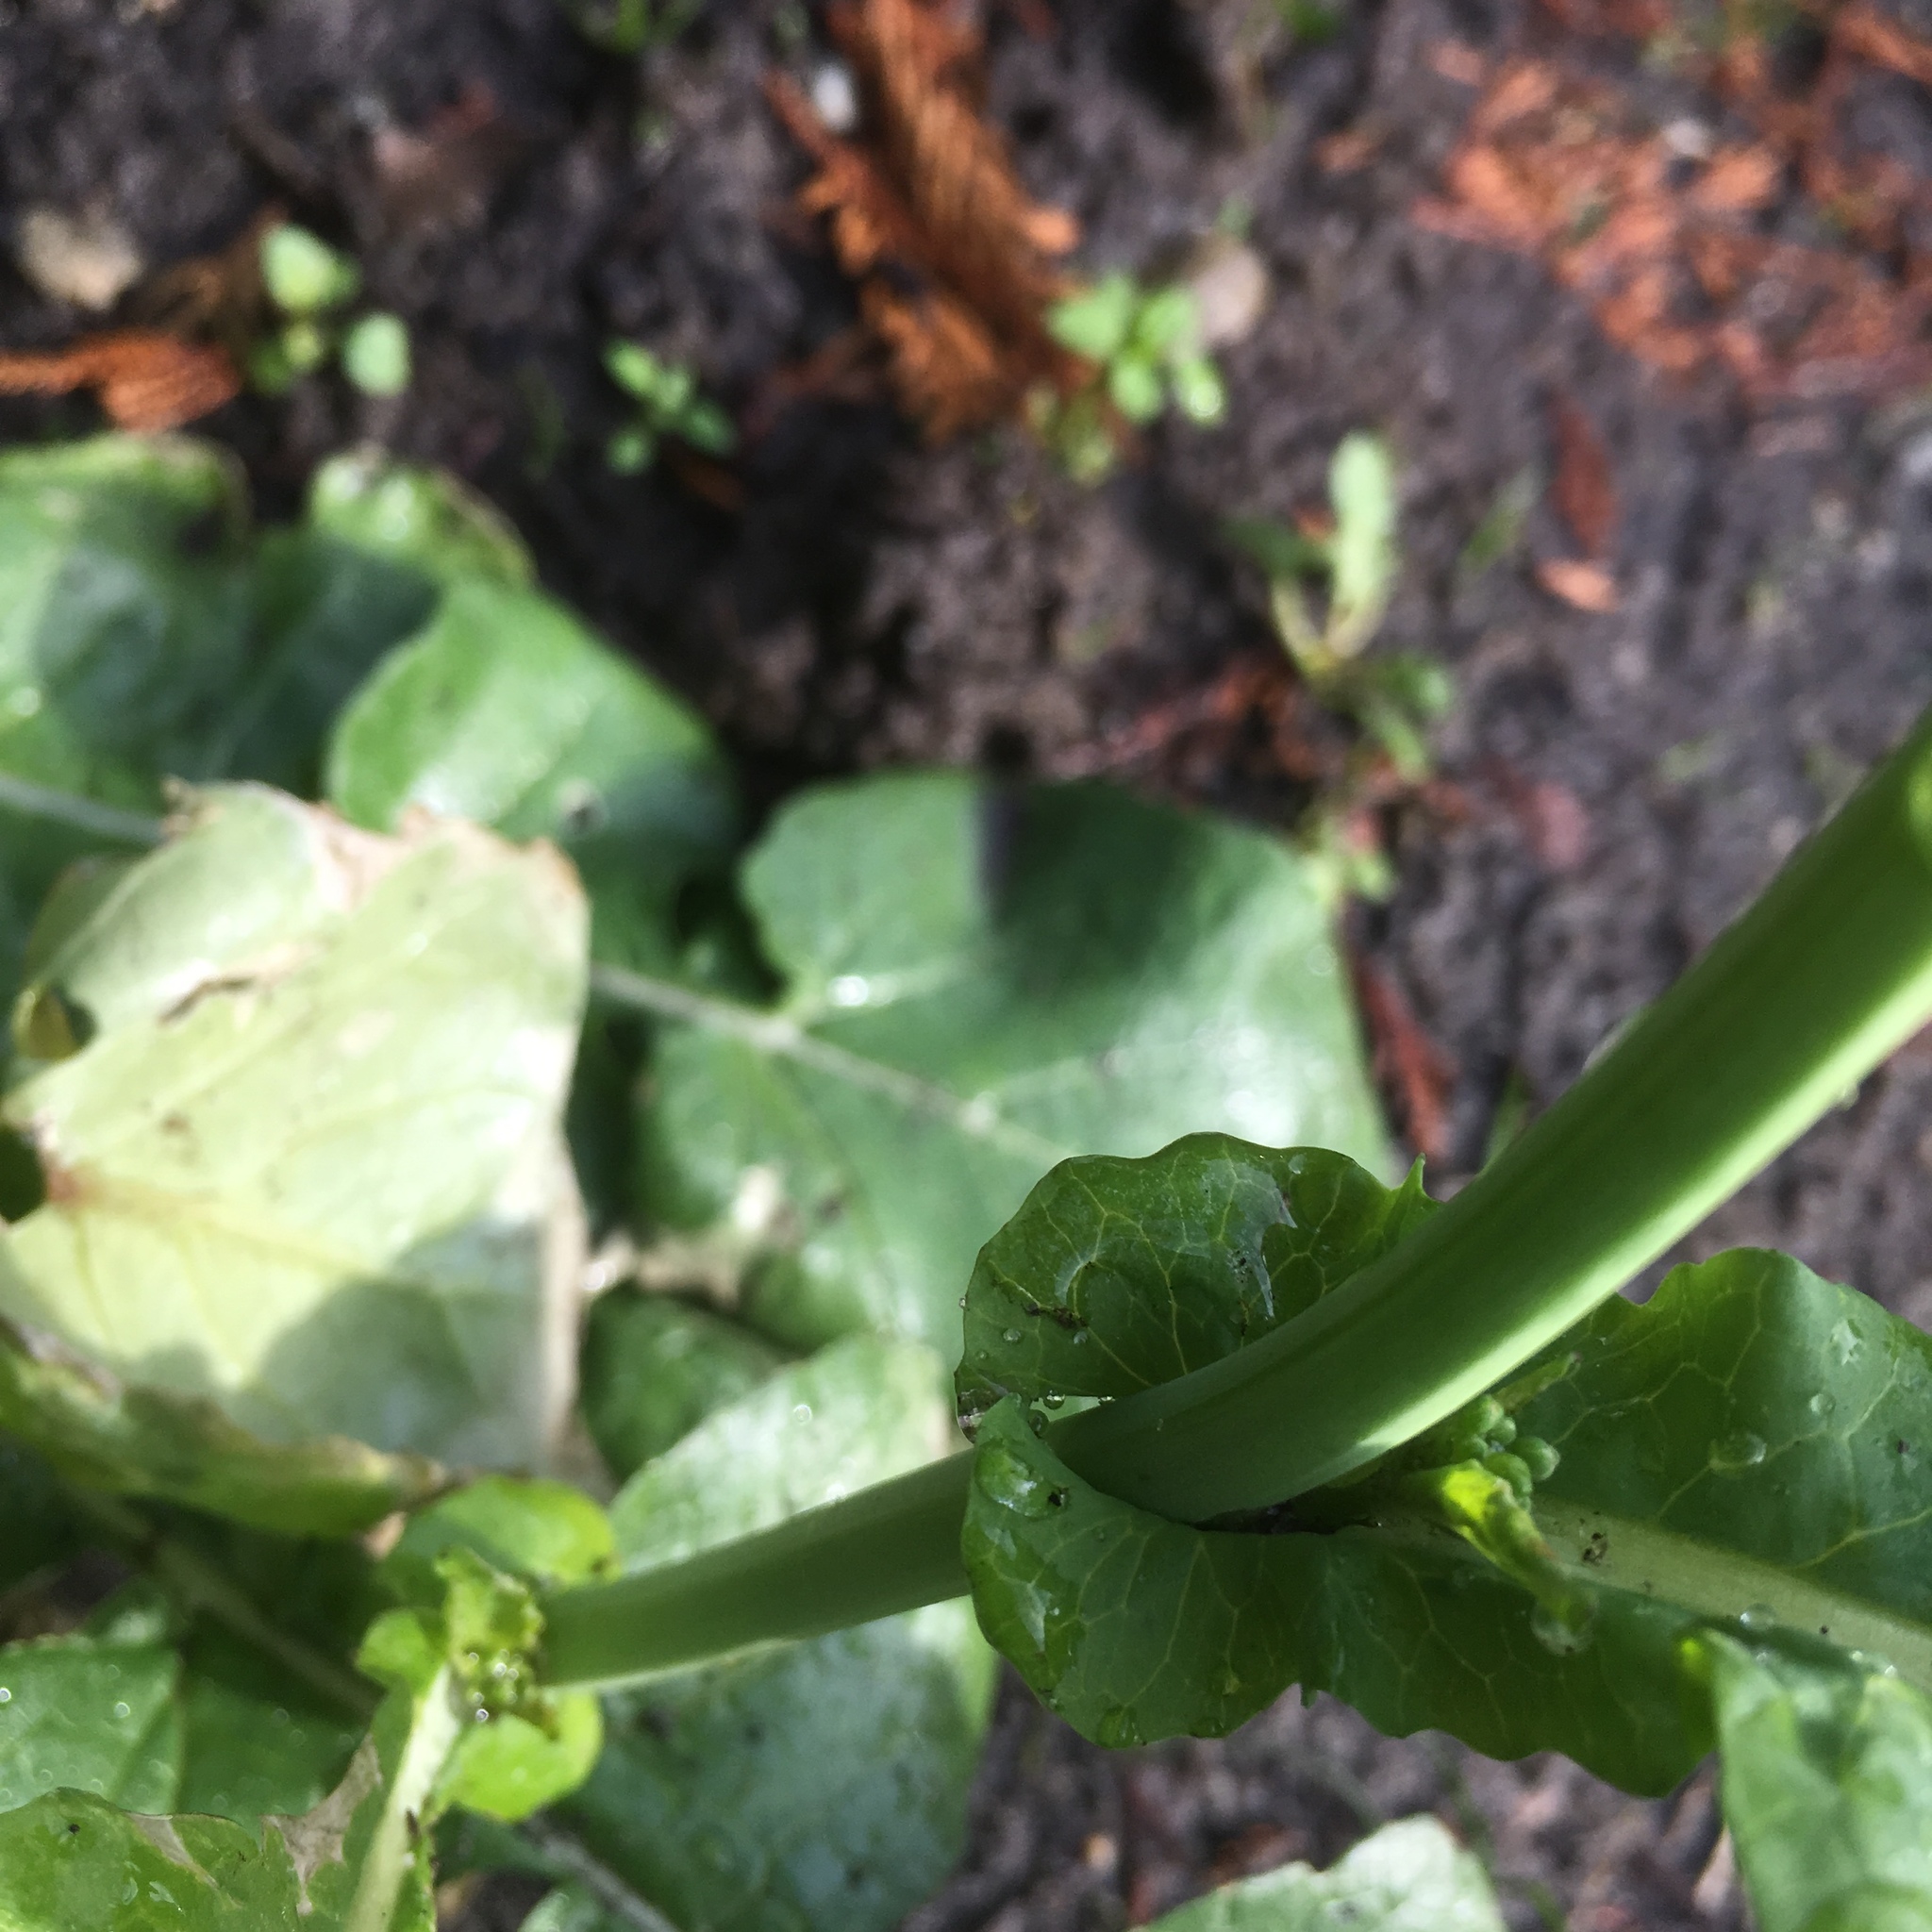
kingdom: Plantae
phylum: Tracheophyta
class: Magnoliopsida
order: Brassicales
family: Brassicaceae
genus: Brassica
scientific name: Brassica rapa
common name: Field mustard
